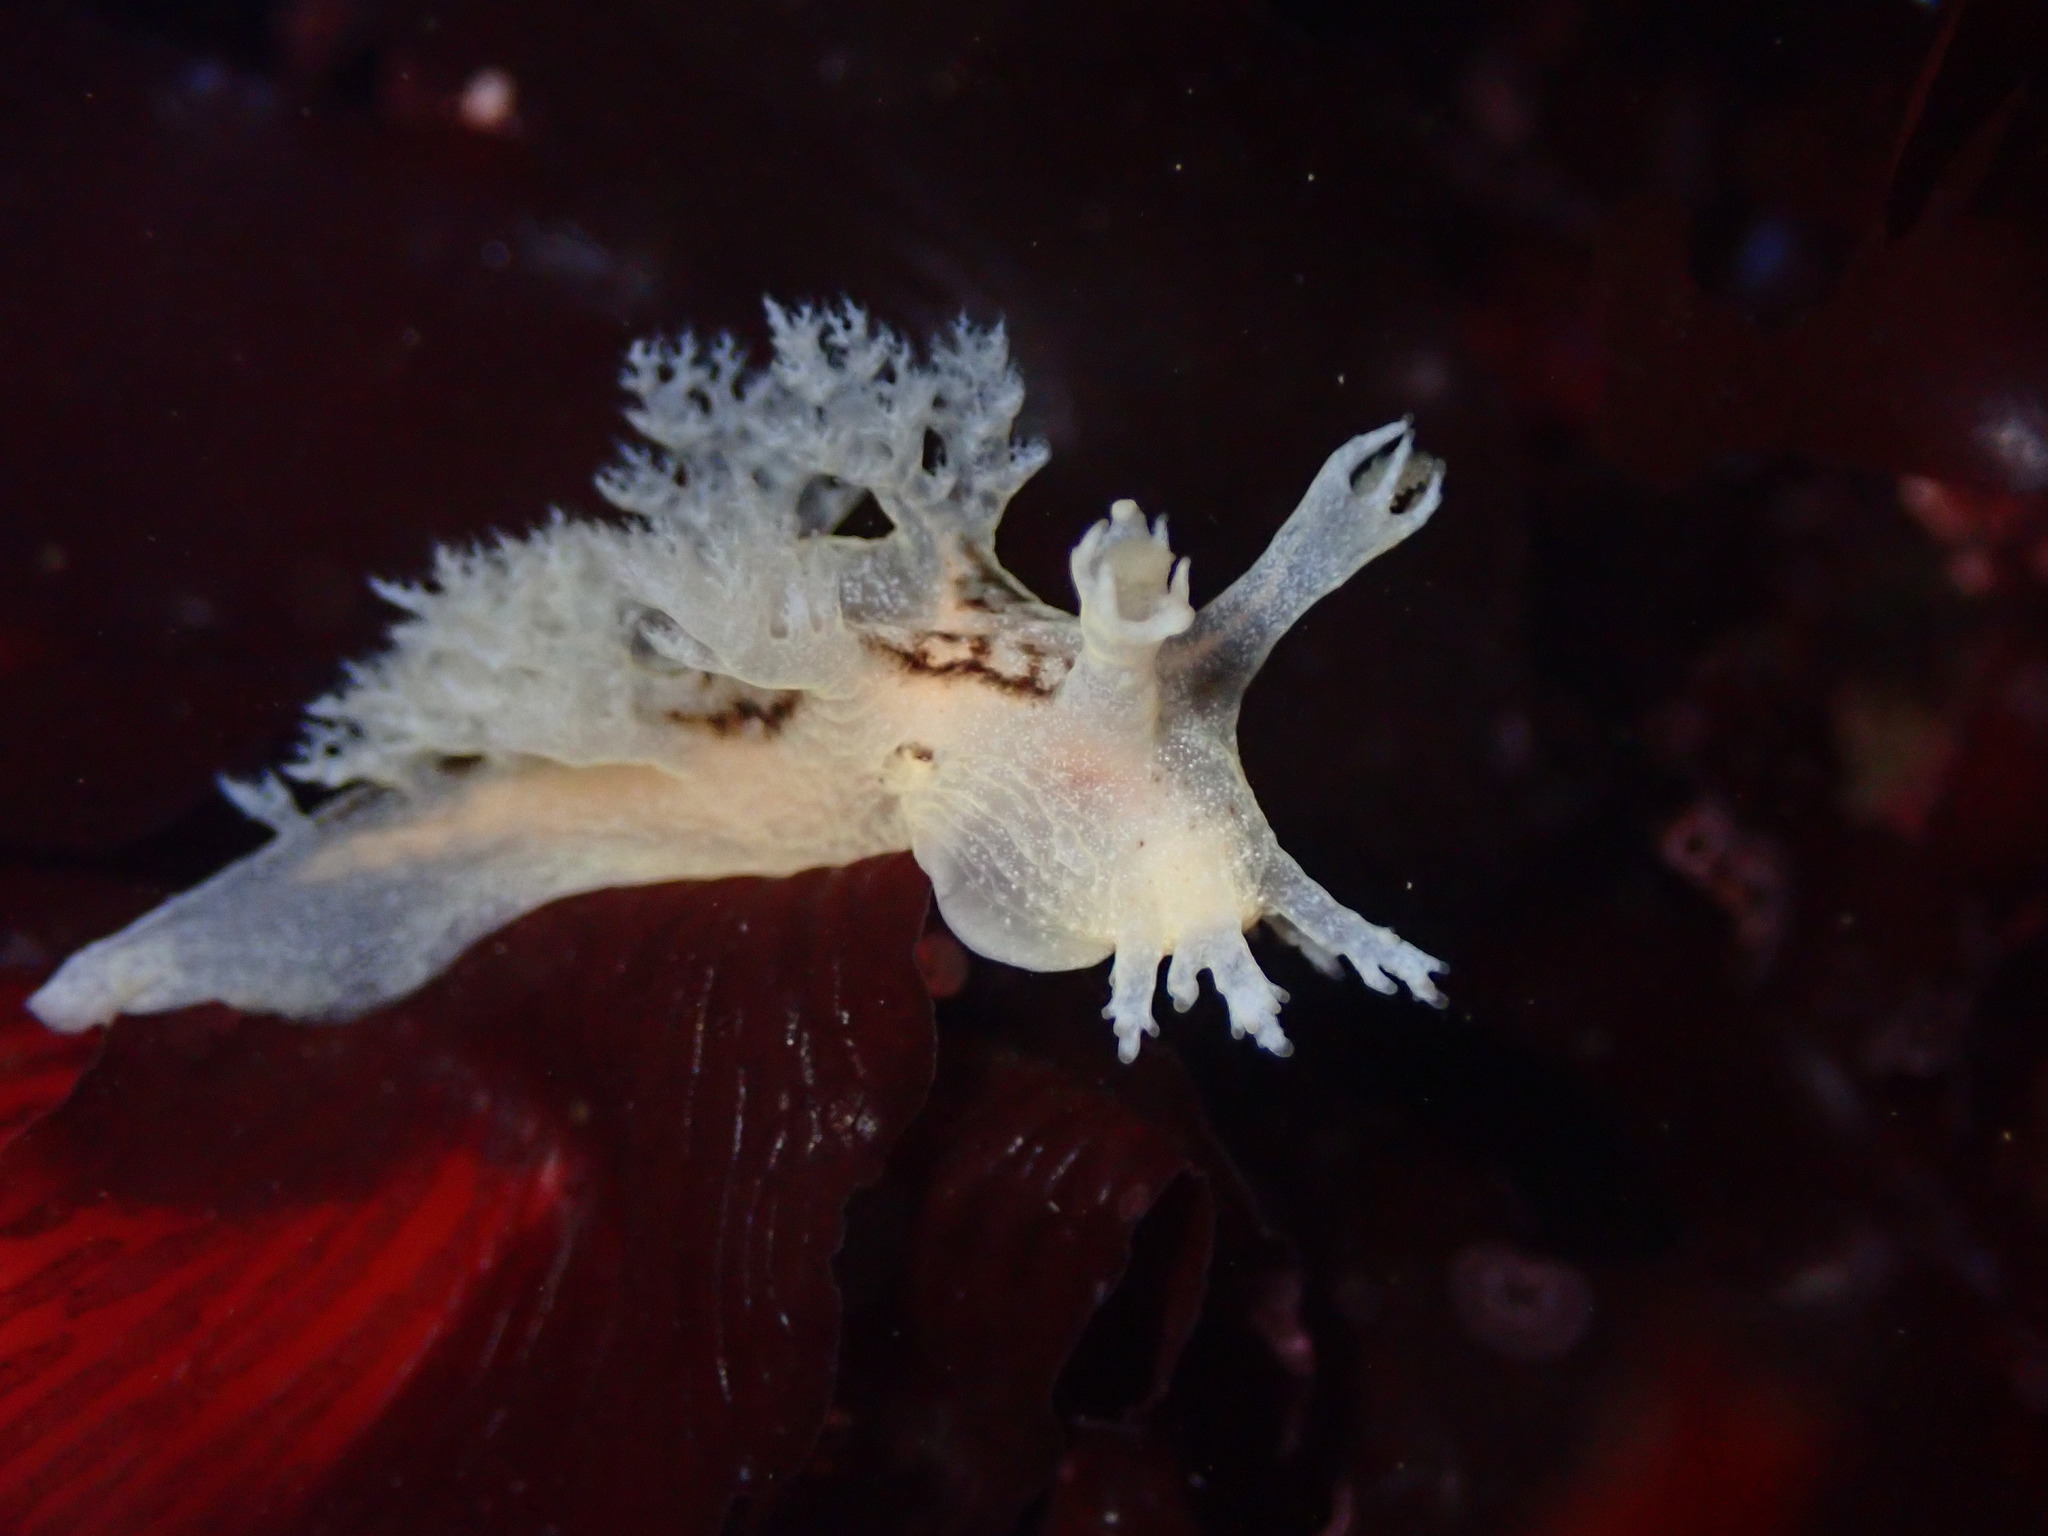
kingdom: Animalia
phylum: Mollusca
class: Gastropoda
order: Nudibranchia
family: Dendronotidae
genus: Dendronotus
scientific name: Dendronotus subramosus
